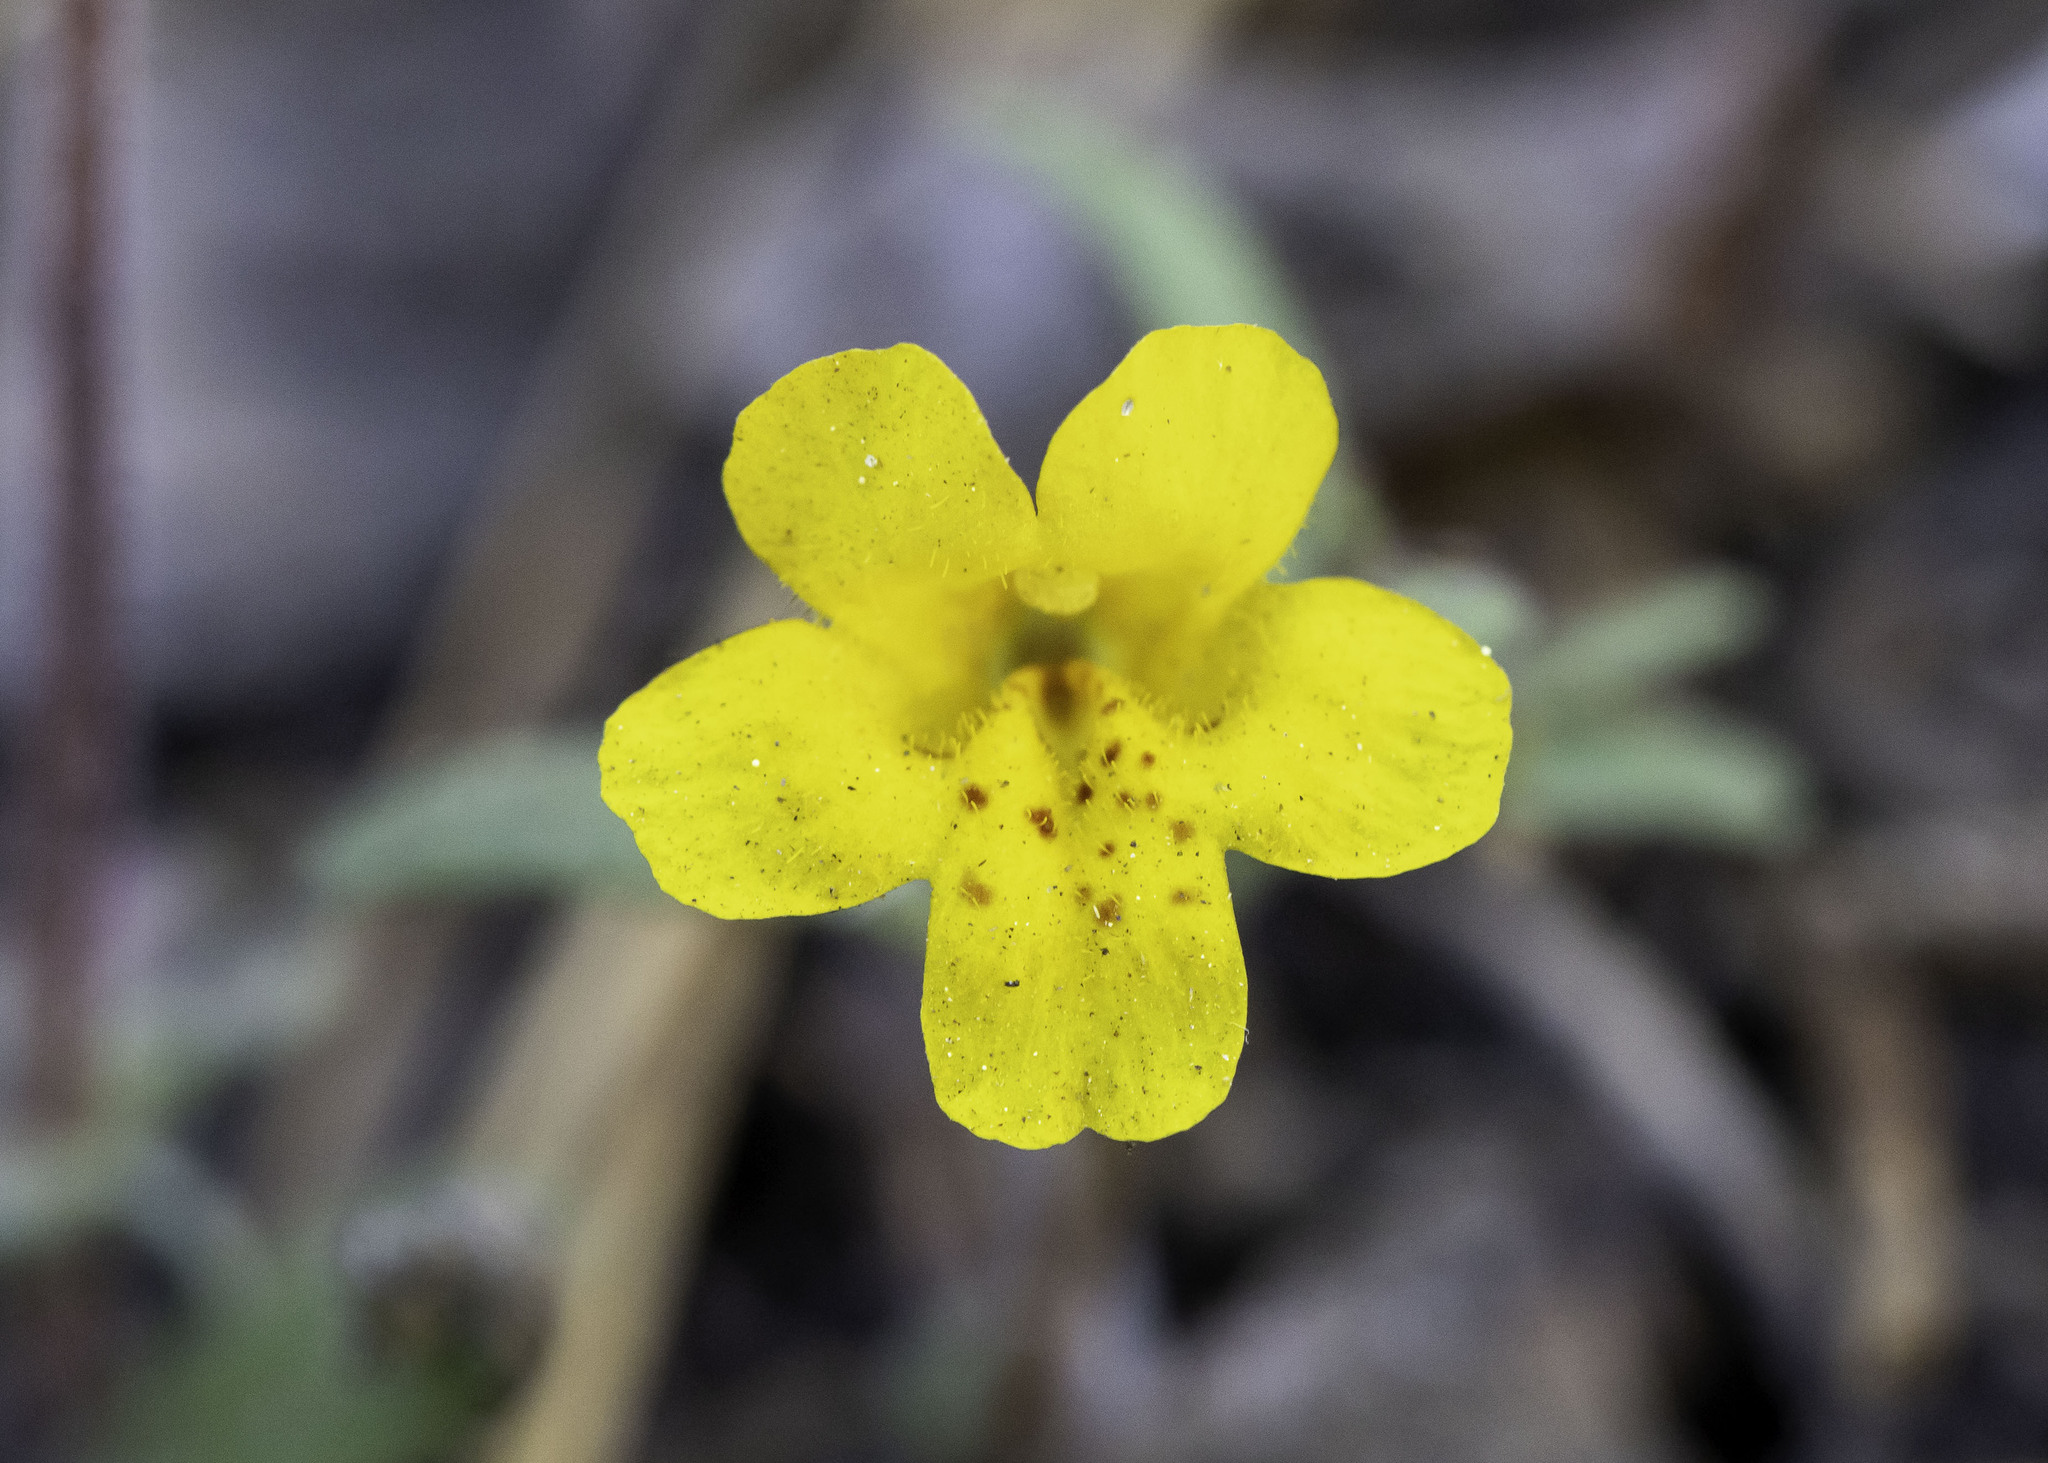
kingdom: Plantae
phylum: Tracheophyta
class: Magnoliopsida
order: Lamiales
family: Phrymaceae
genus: Erythranthe
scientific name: Erythranthe montioides
